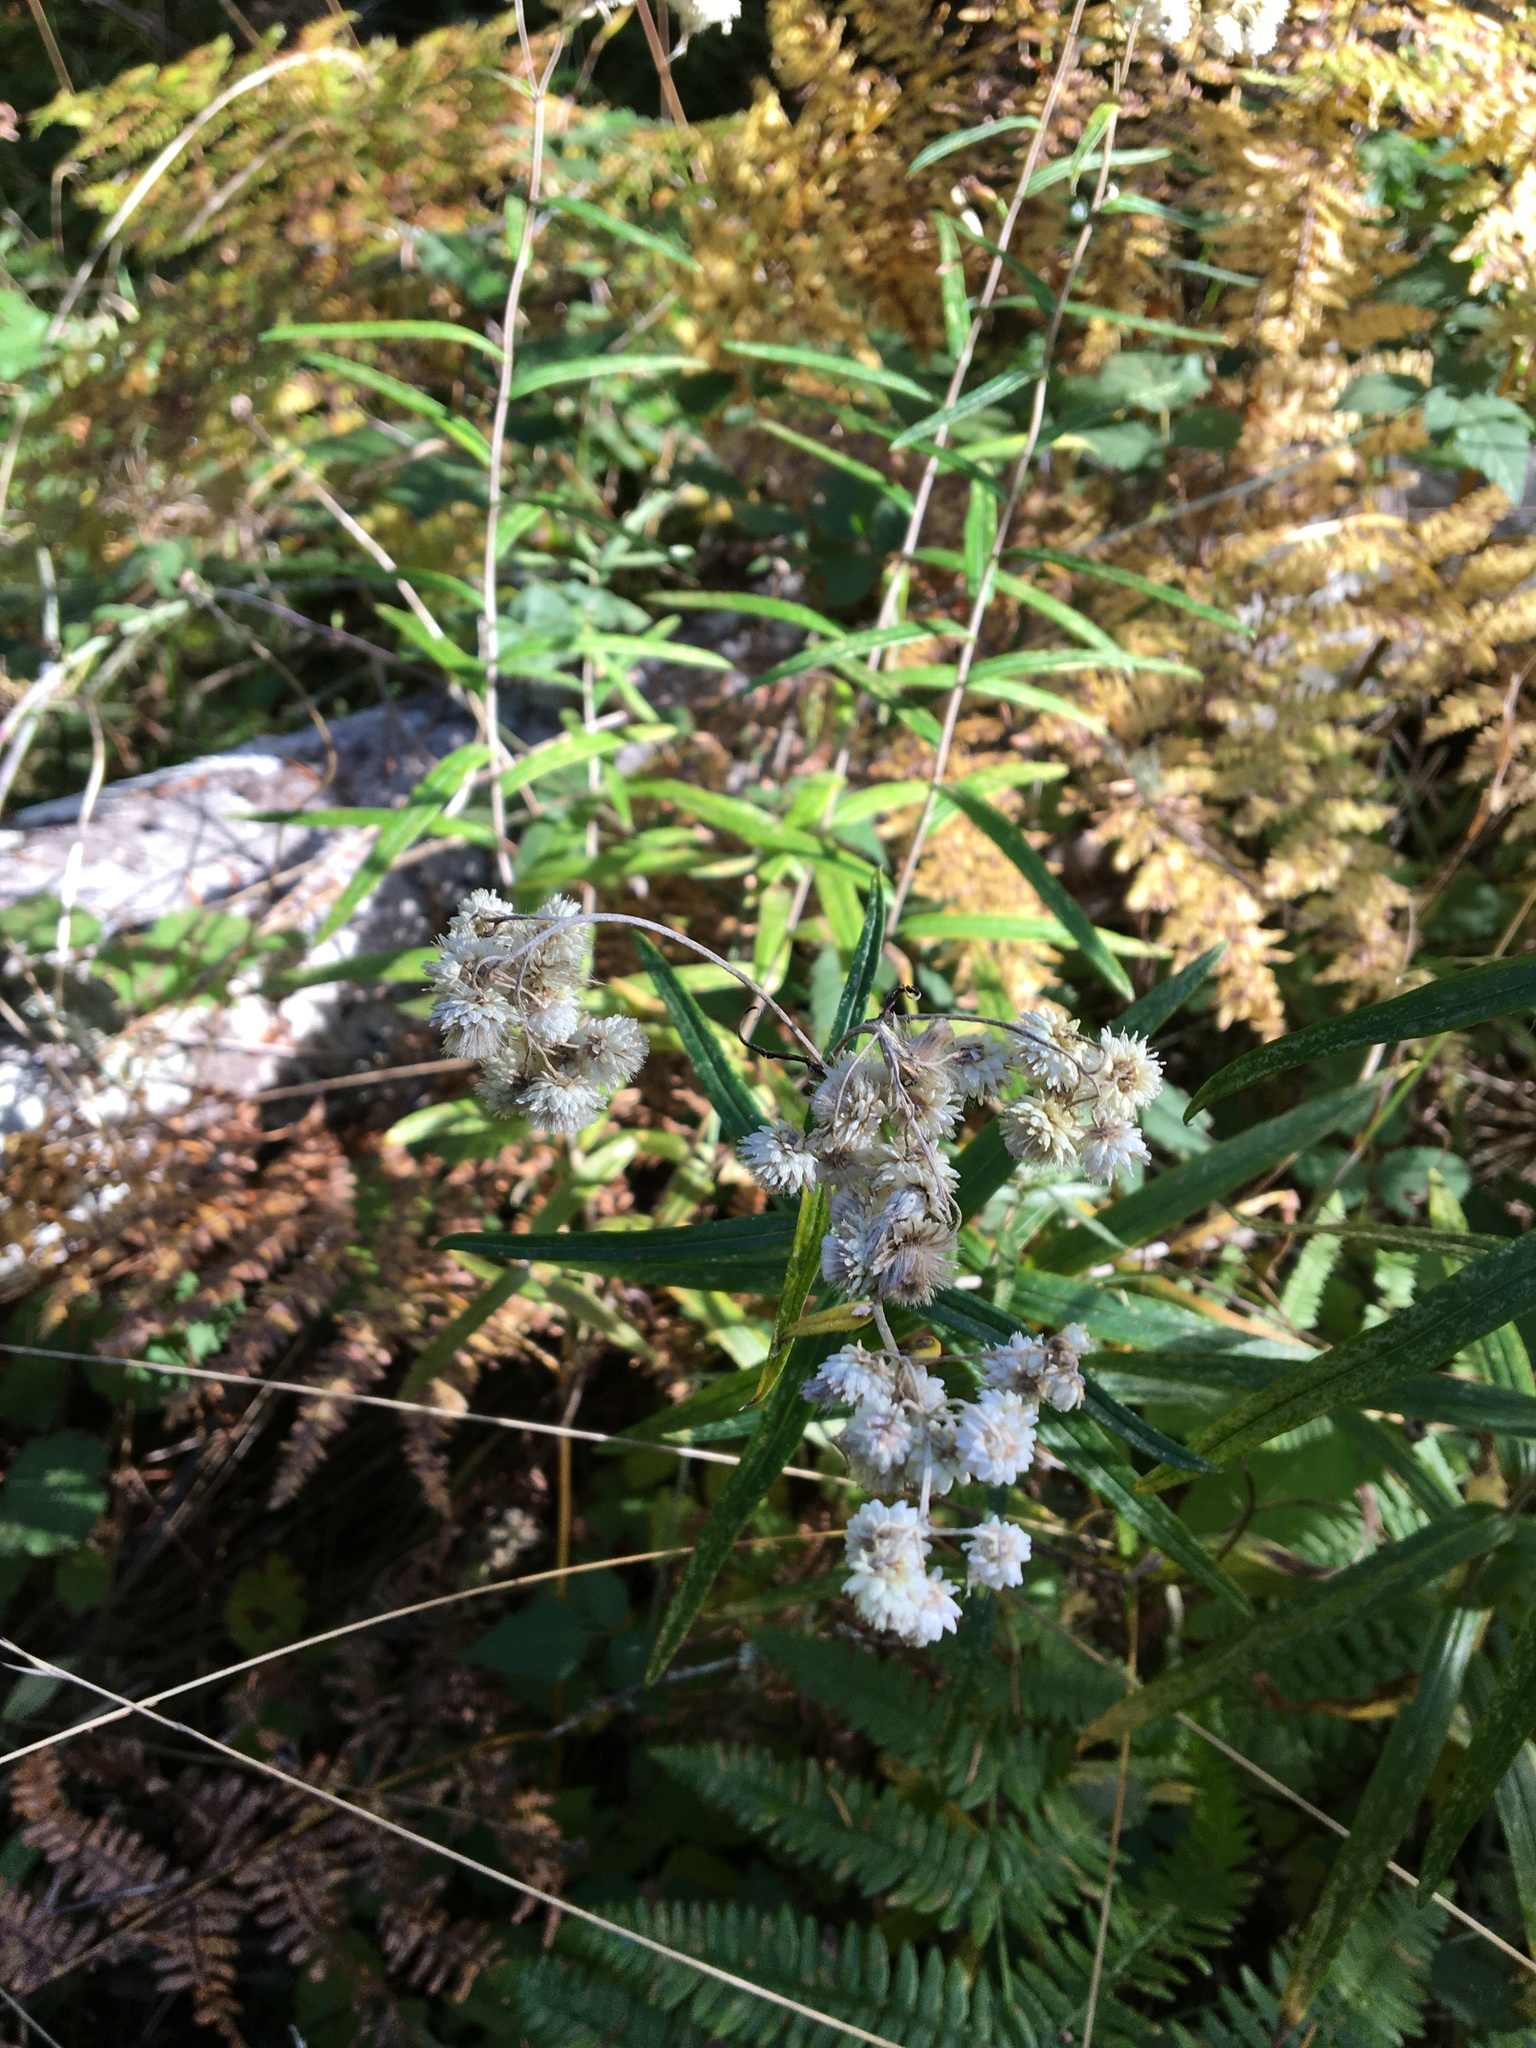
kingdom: Plantae
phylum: Tracheophyta
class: Magnoliopsida
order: Asterales
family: Asteraceae
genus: Anaphalis
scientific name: Anaphalis margaritacea
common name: Pearly everlasting
